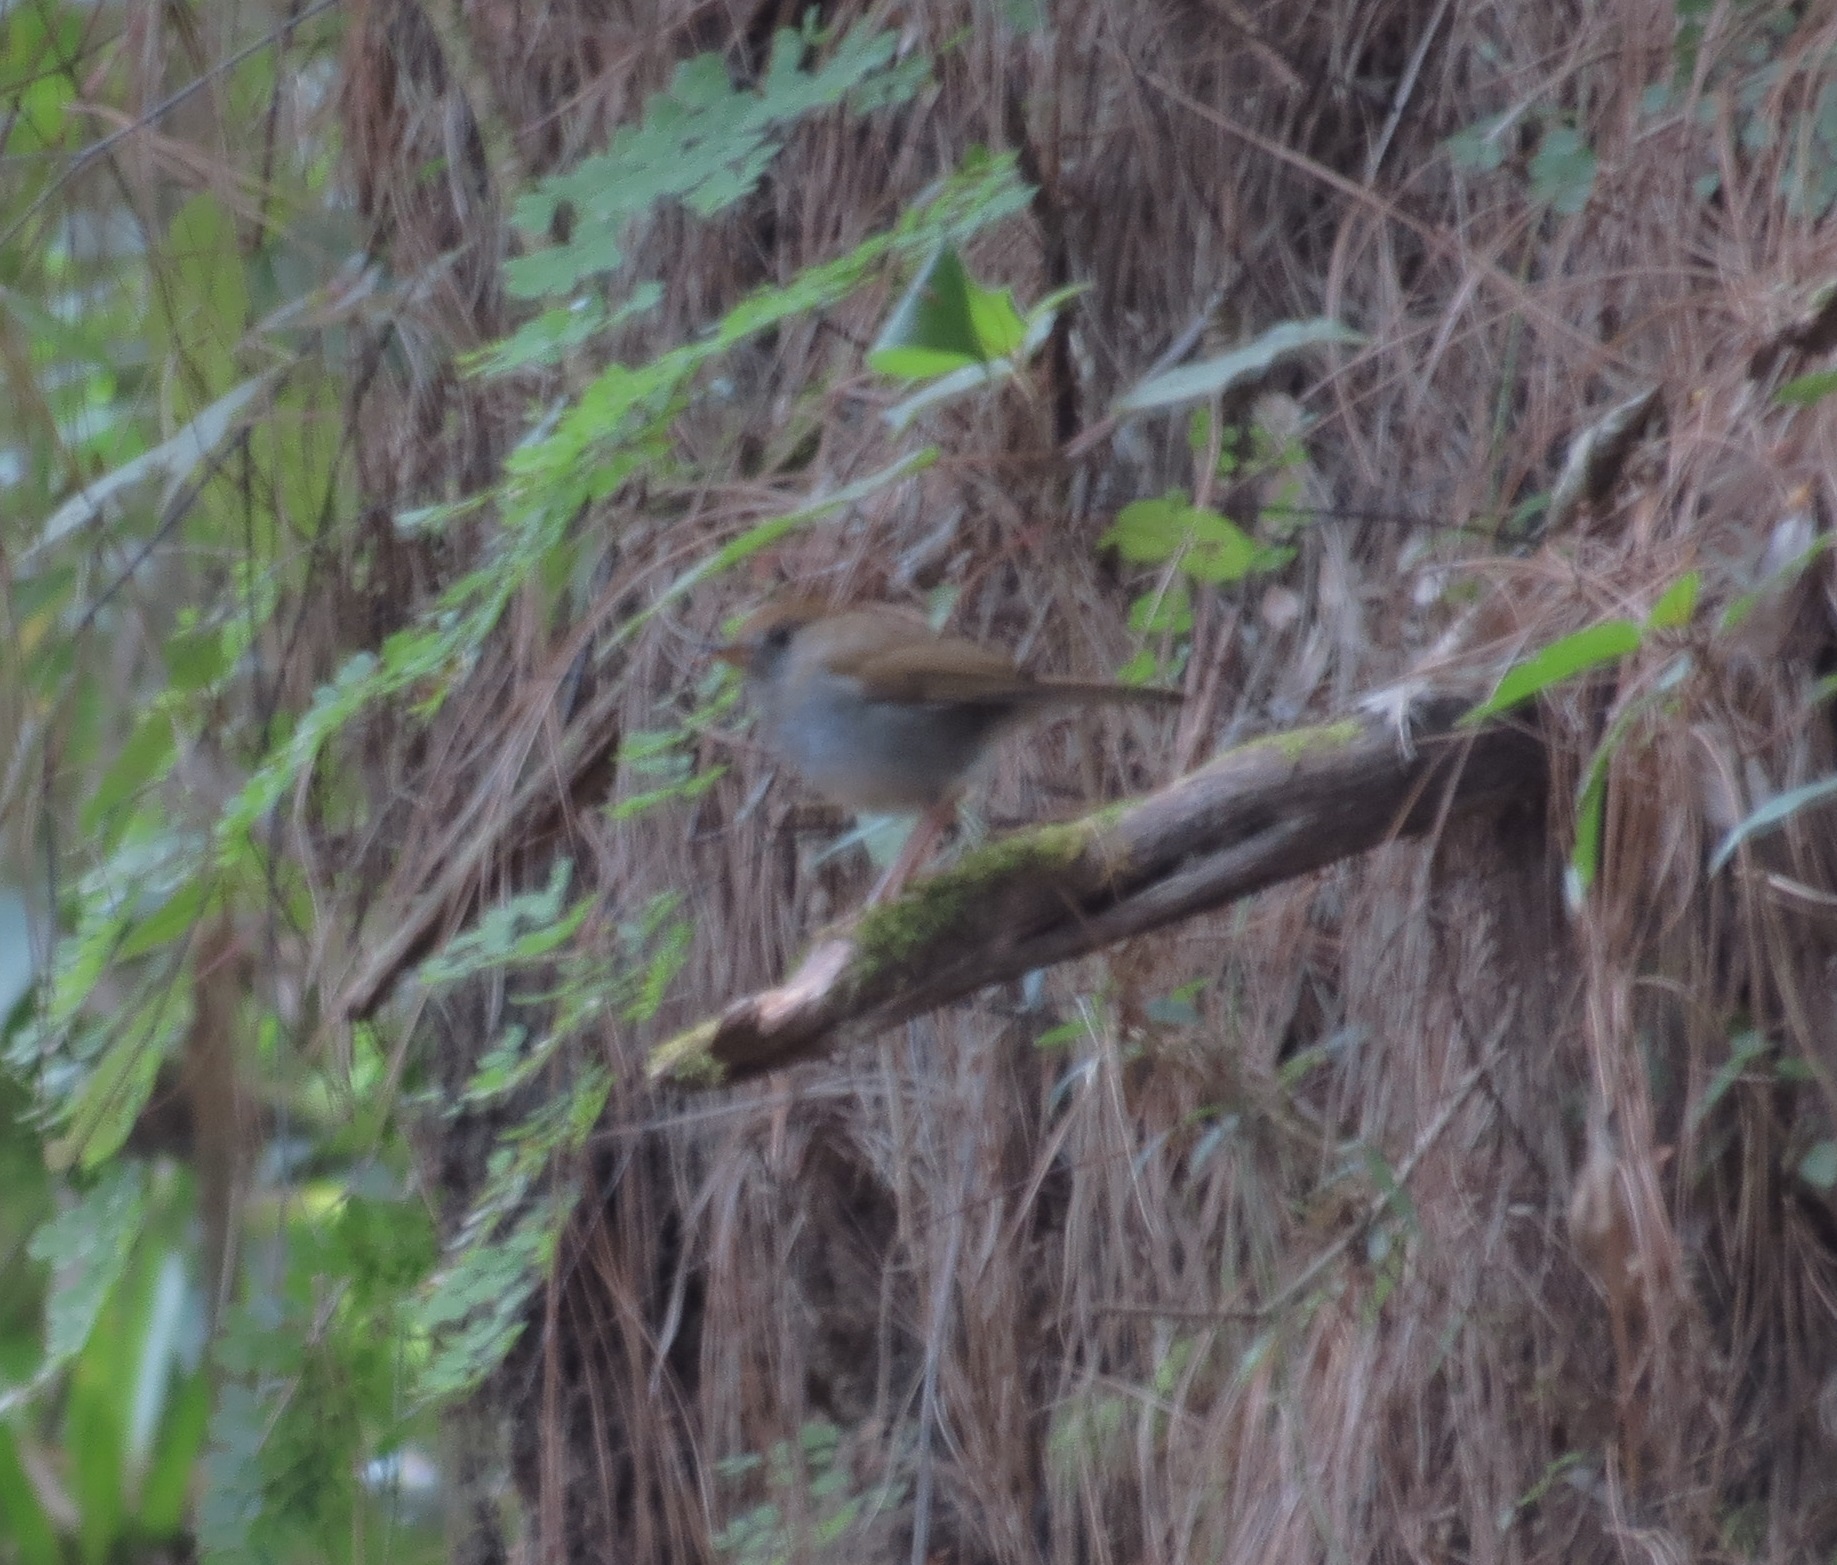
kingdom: Animalia
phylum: Chordata
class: Aves
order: Passeriformes
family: Turdidae
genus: Catharus
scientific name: Catharus frantzii
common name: Ruddy-capped nightingale-thrush
